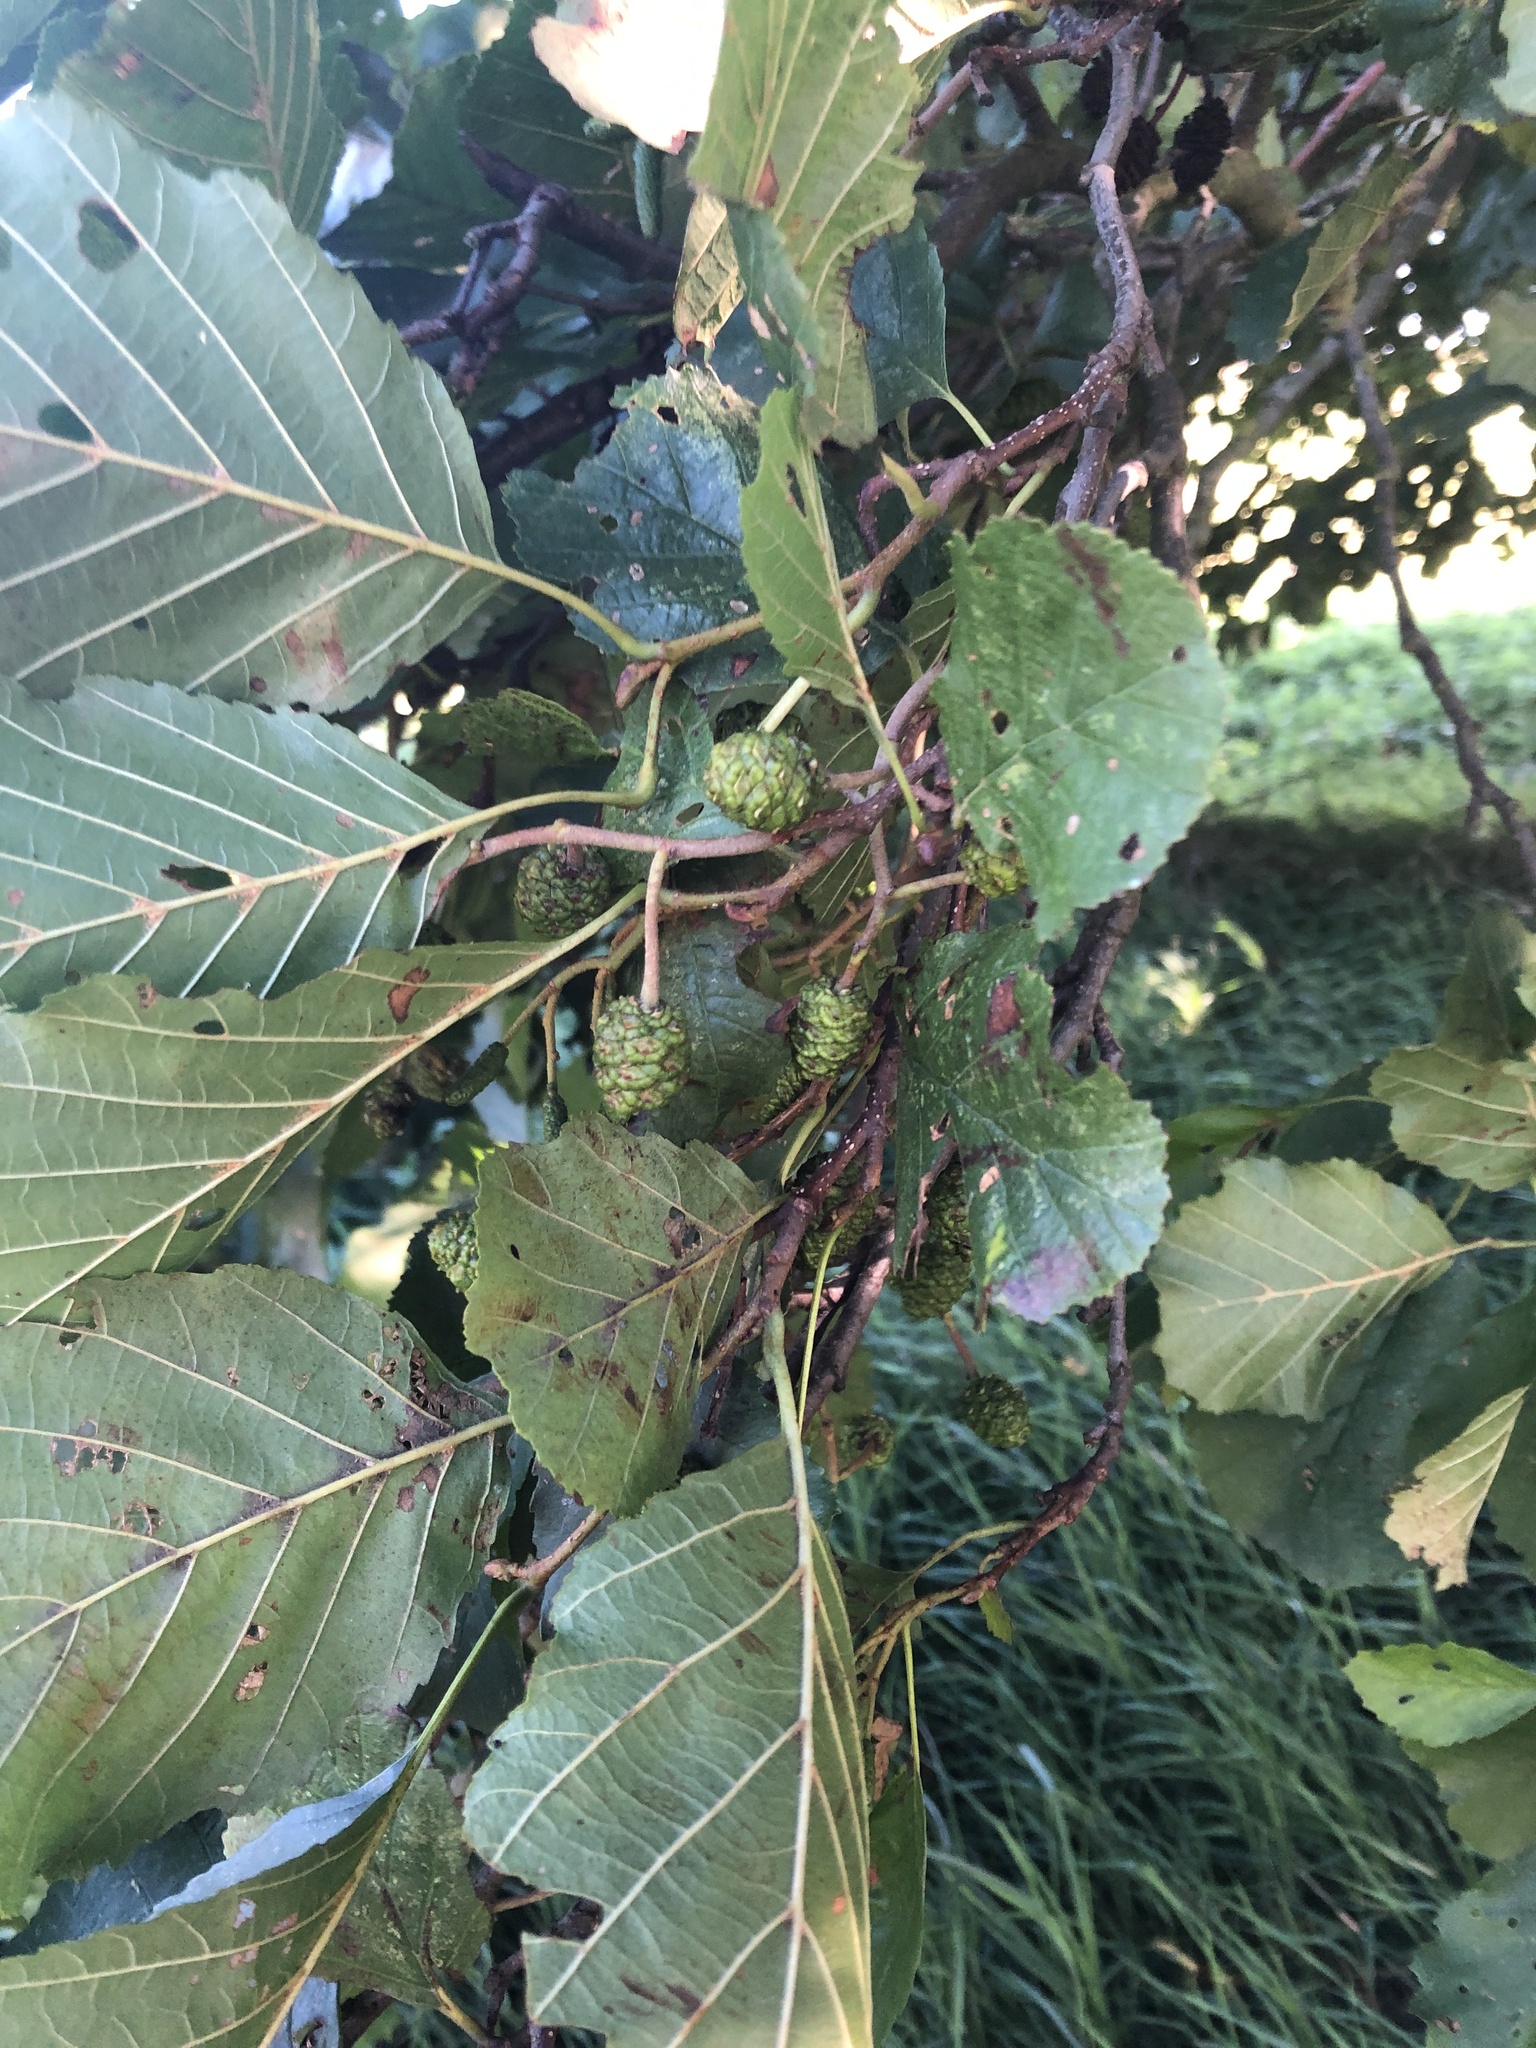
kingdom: Plantae
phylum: Tracheophyta
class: Magnoliopsida
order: Fagales
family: Betulaceae
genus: Alnus
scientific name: Alnus glutinosa
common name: Black alder
